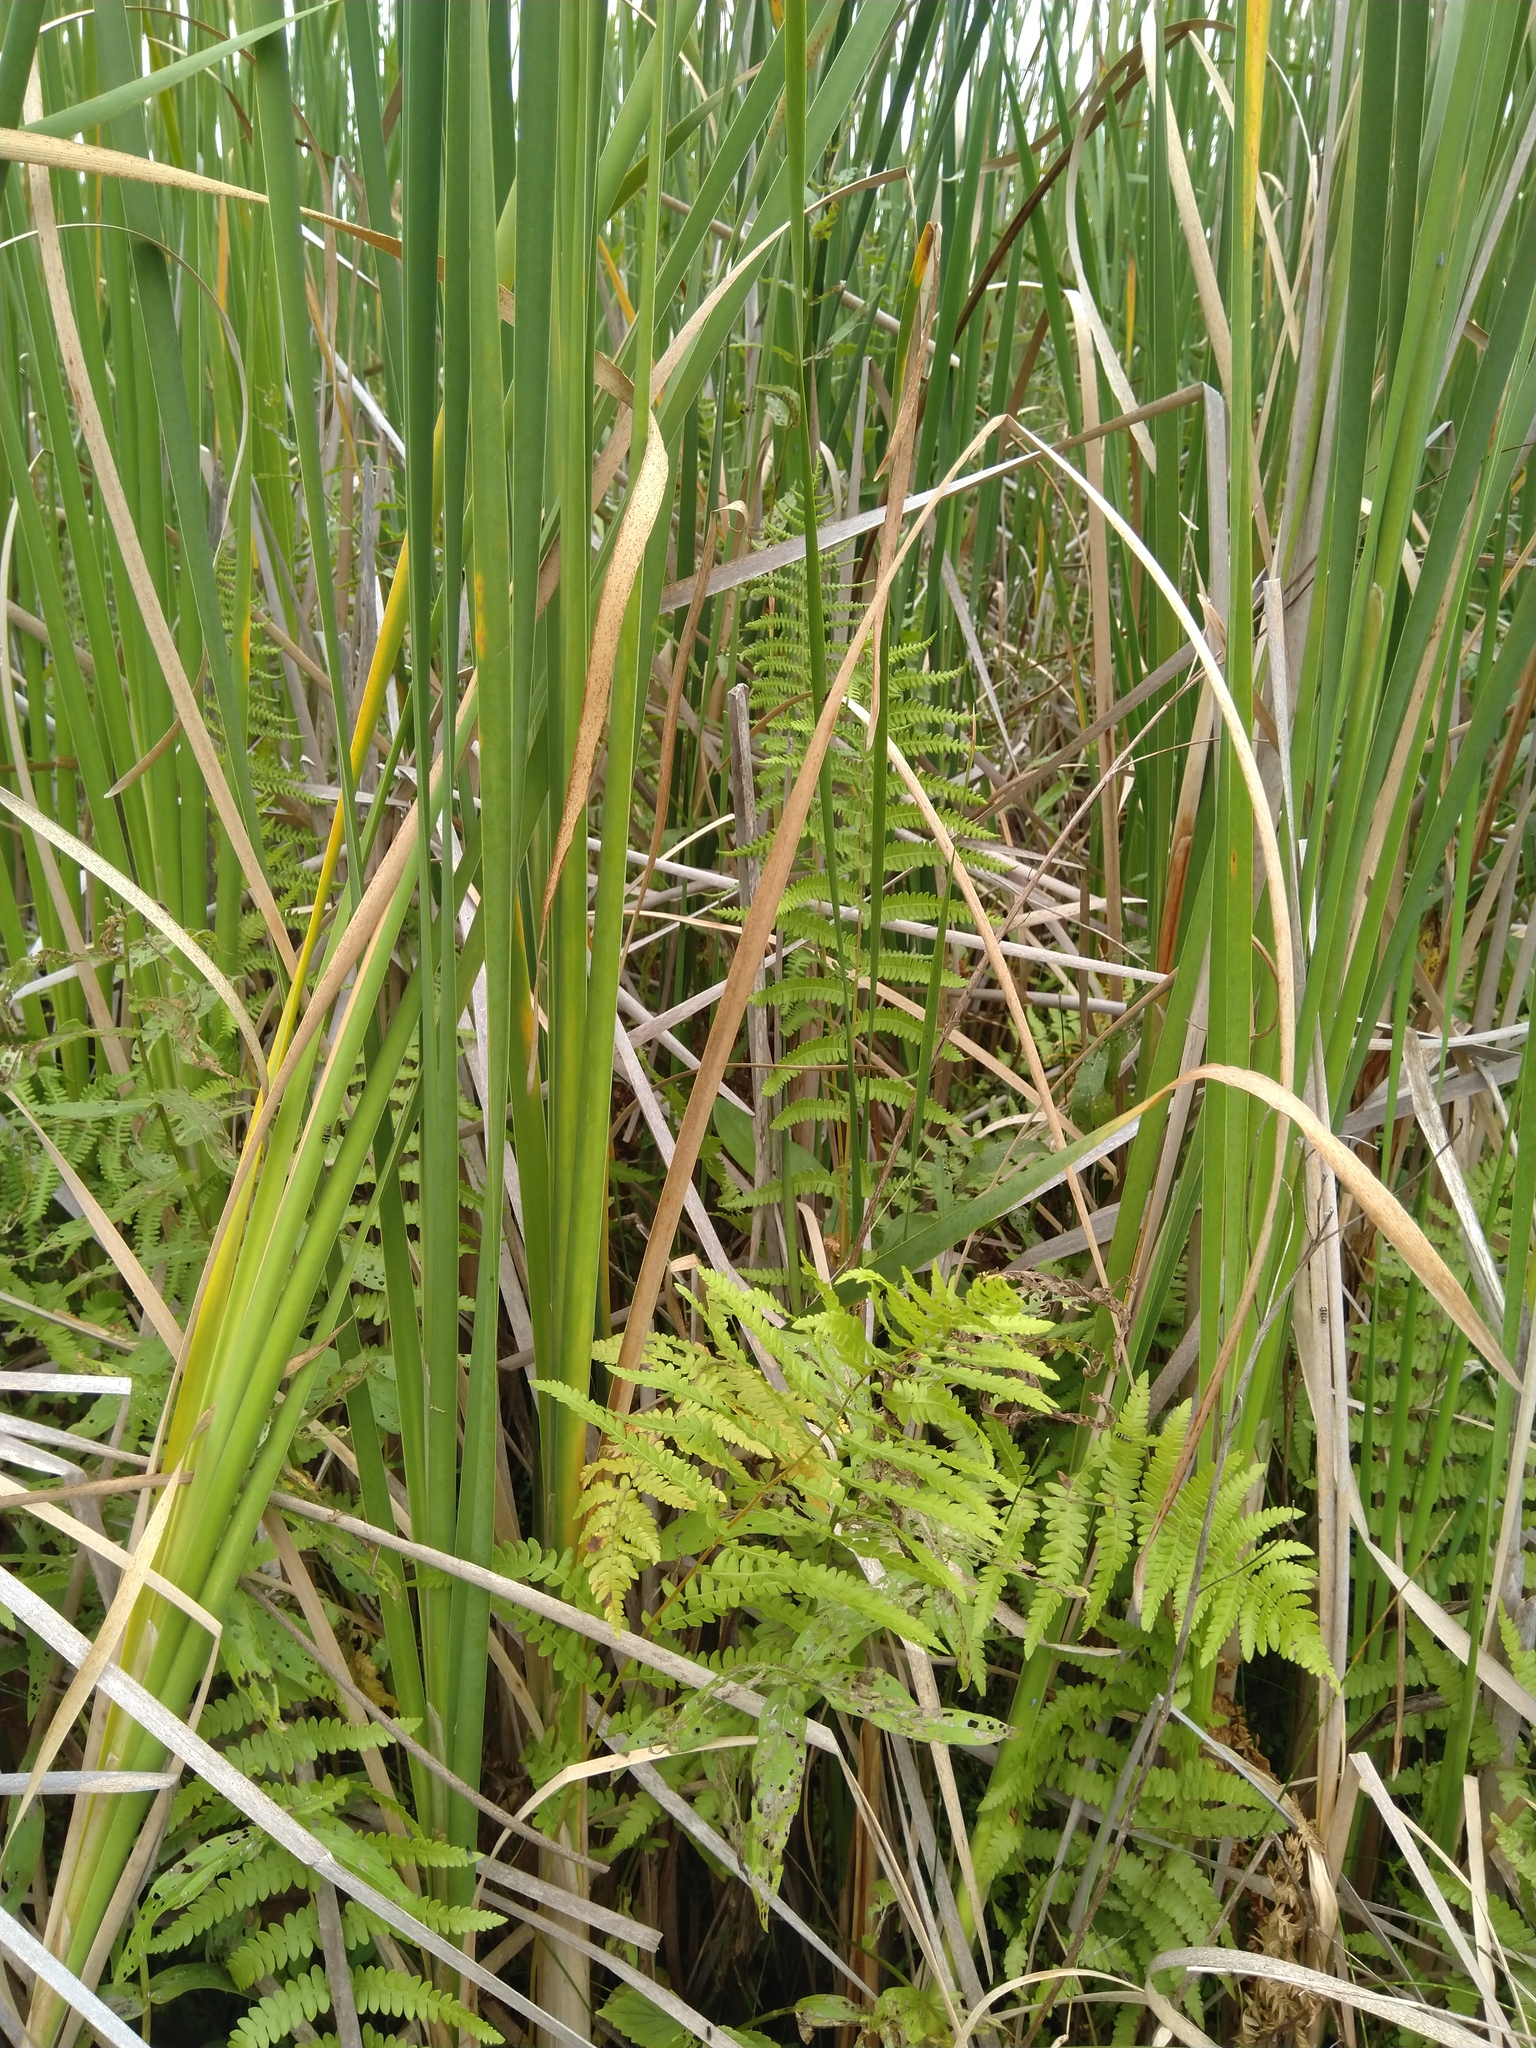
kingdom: Plantae
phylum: Tracheophyta
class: Polypodiopsida
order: Polypodiales
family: Thelypteridaceae
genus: Thelypteris
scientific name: Thelypteris palustris
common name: Marsh fern
